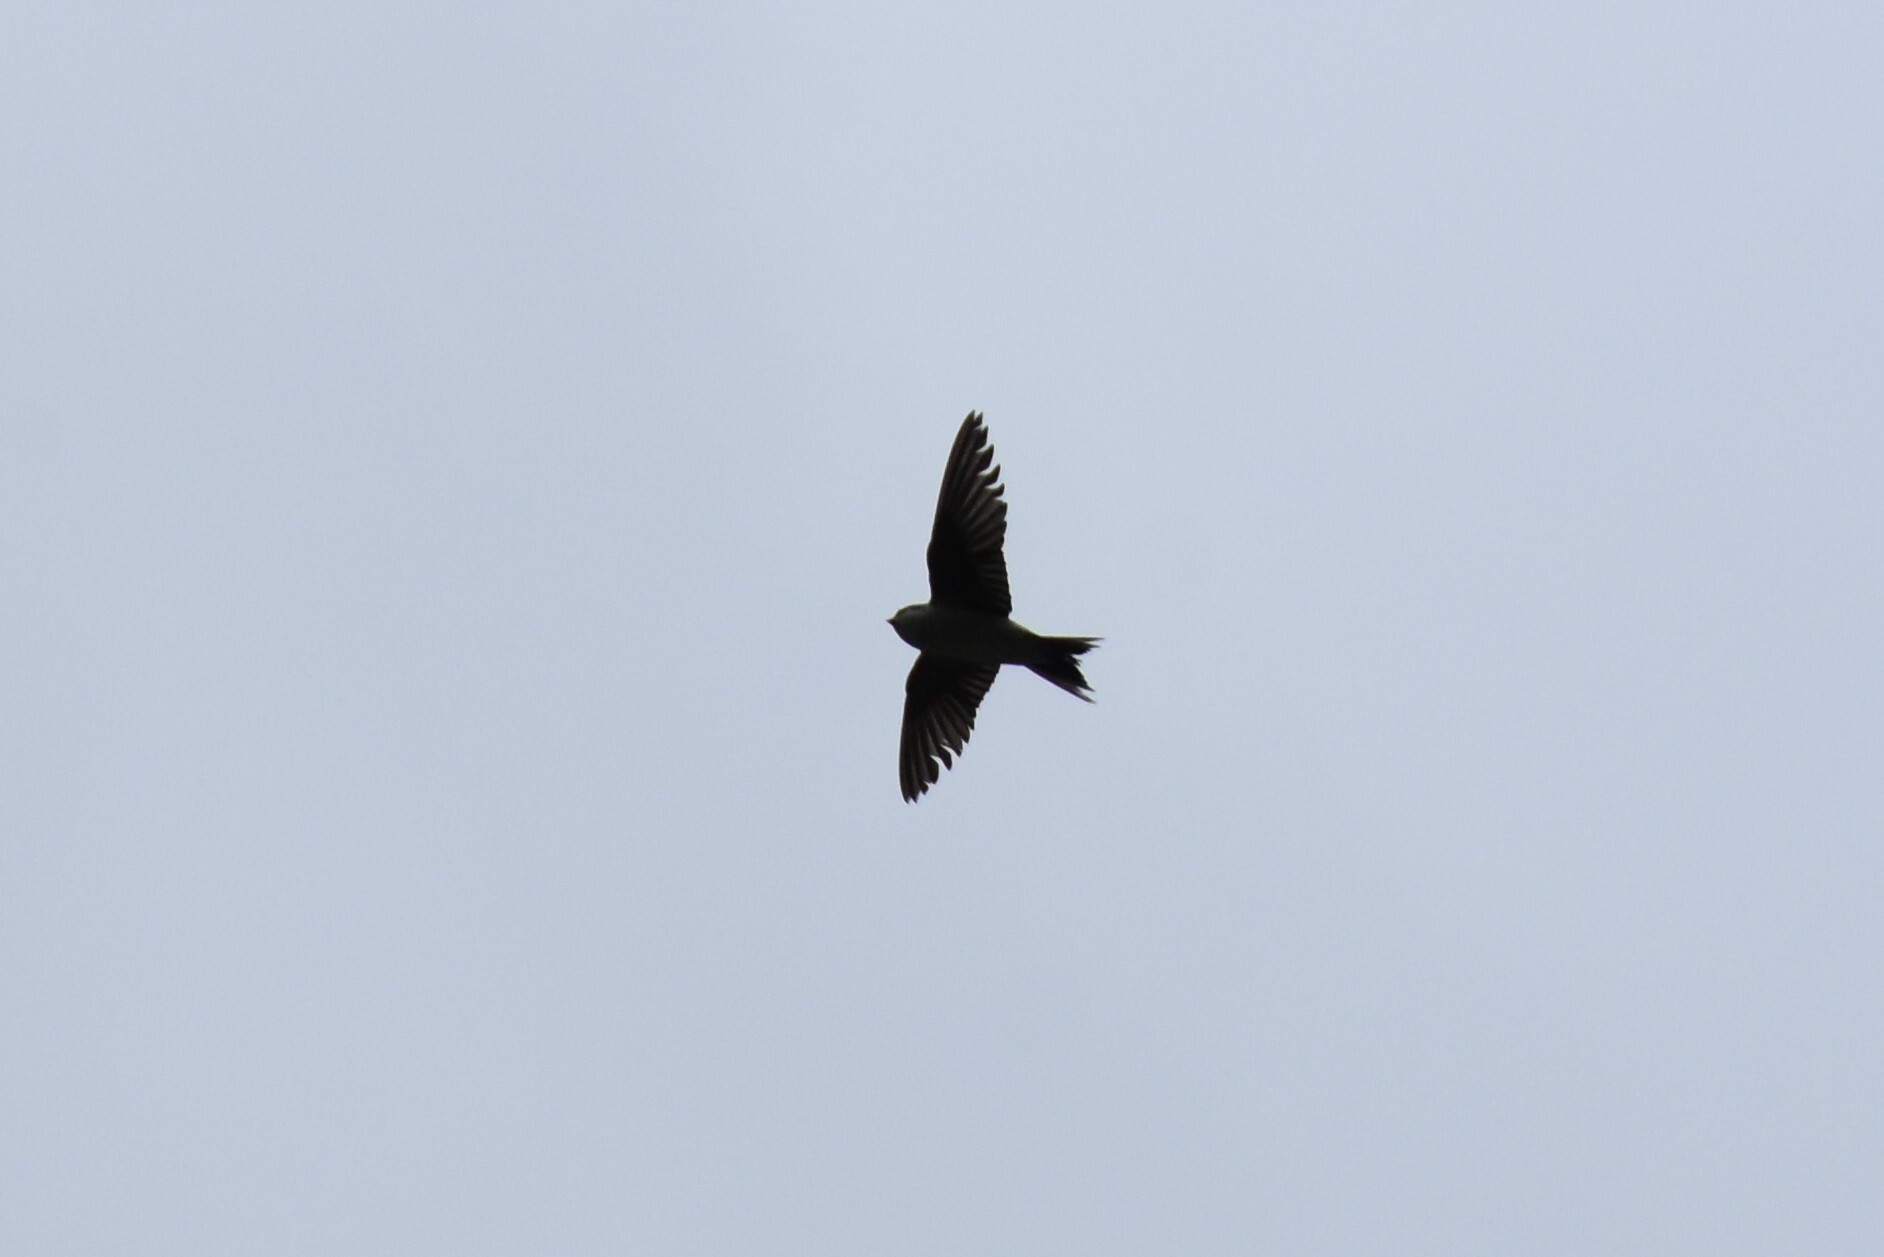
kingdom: Animalia
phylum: Chordata
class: Aves
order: Passeriformes
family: Hirundinidae
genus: Delichon
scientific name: Delichon urbicum
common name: Common house martin
